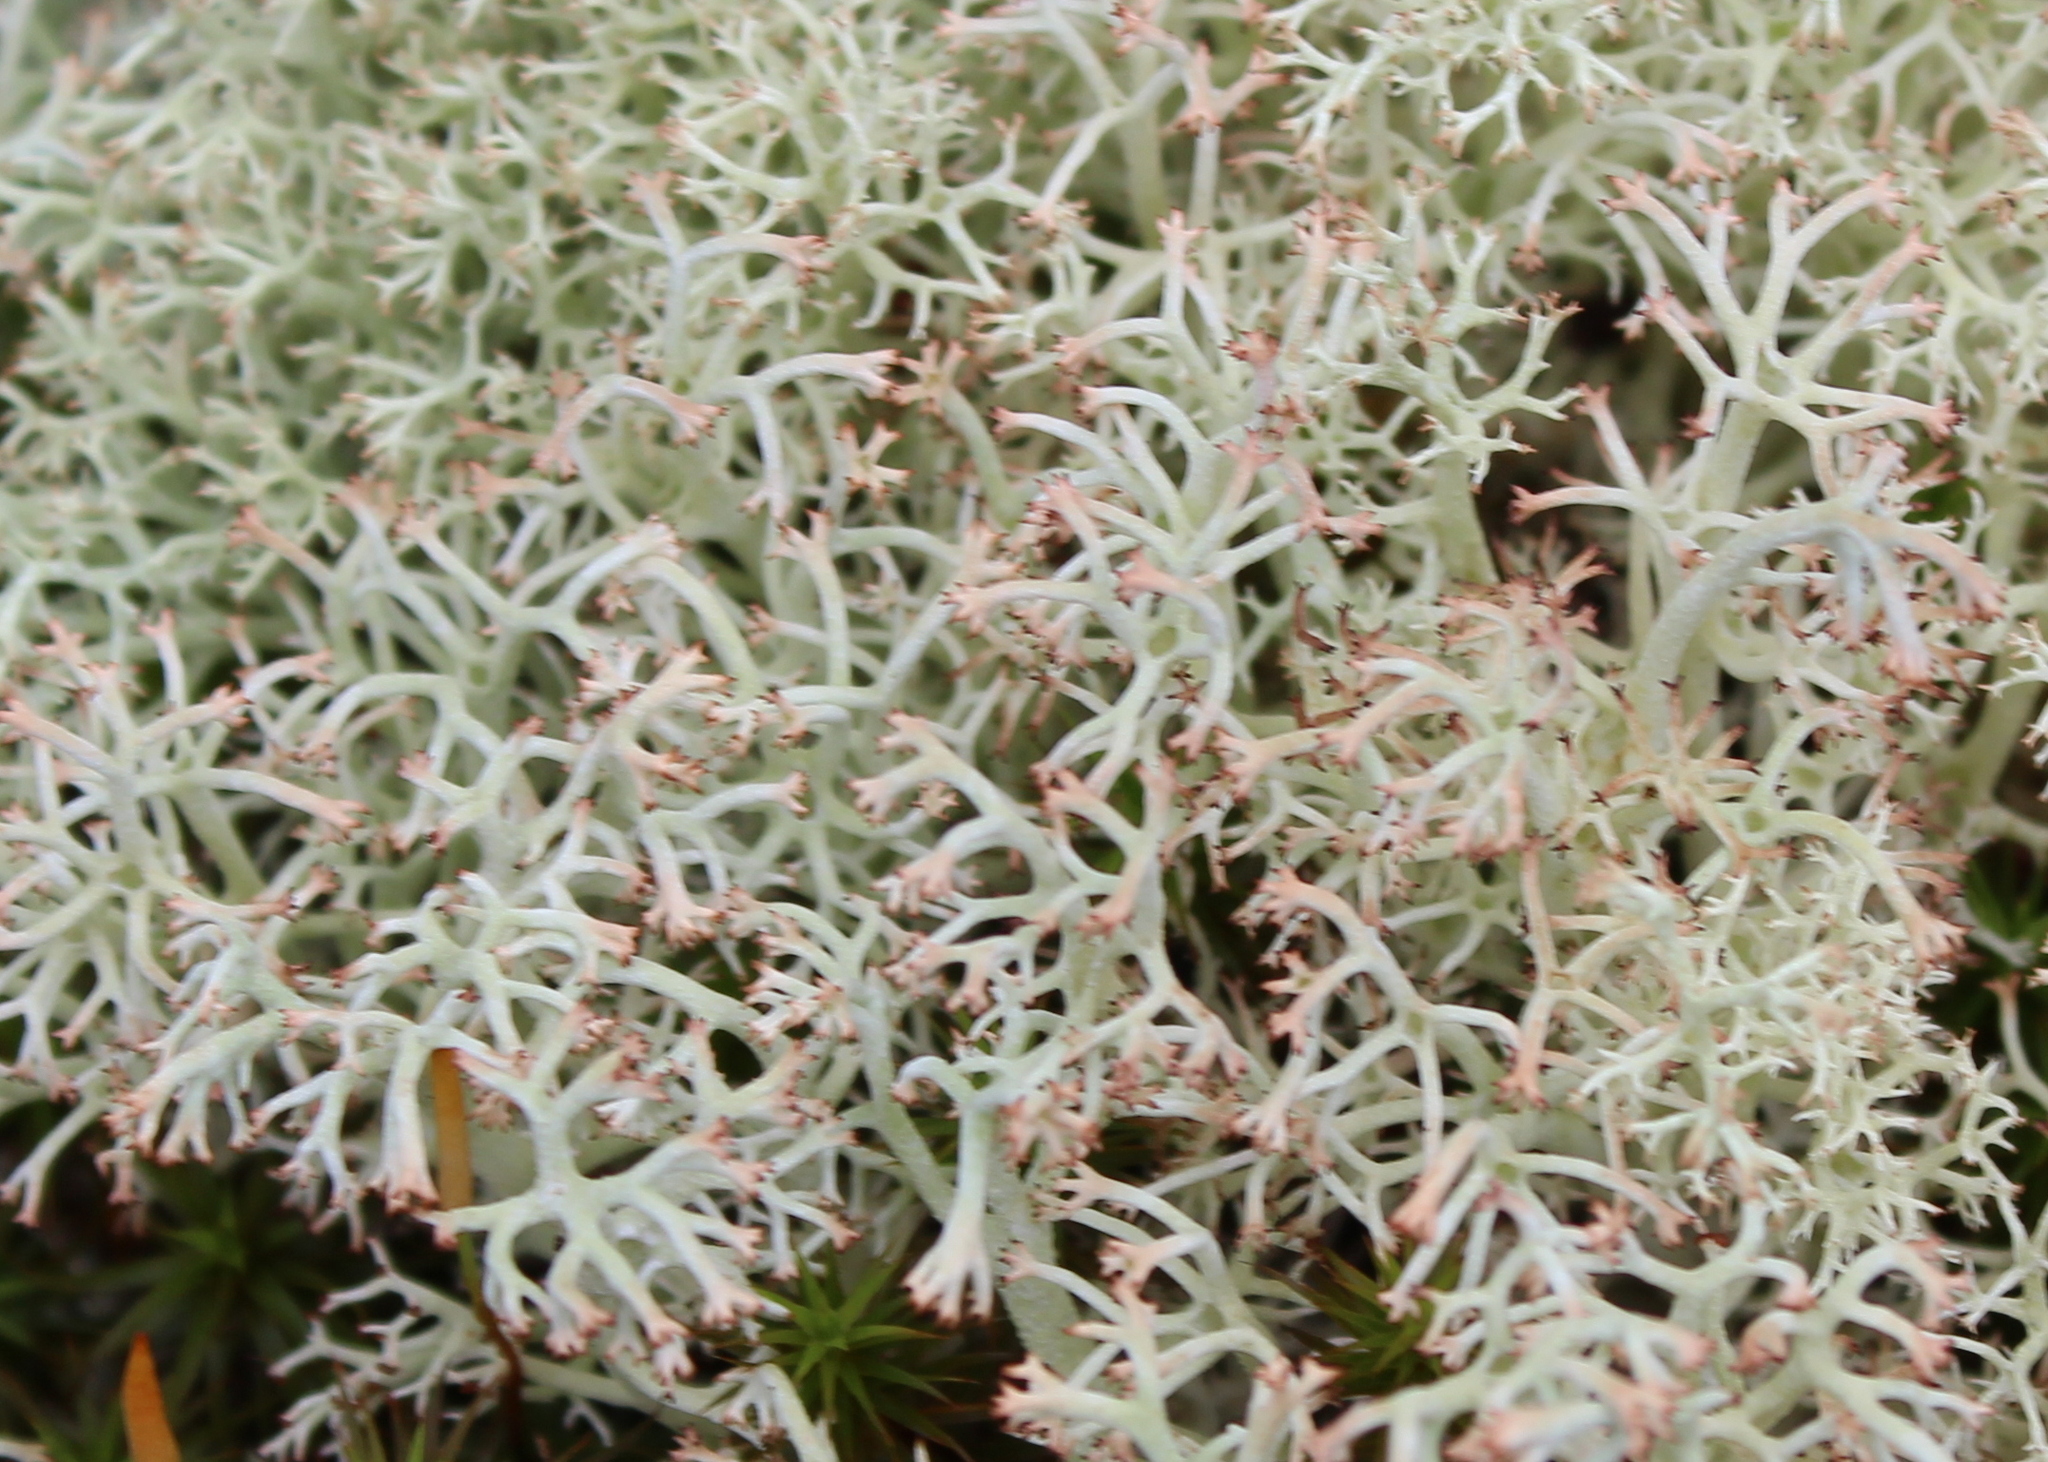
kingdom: Fungi
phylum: Ascomycota
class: Lecanoromycetes
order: Lecanorales
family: Cladoniaceae
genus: Cladonia
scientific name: Cladonia rangiferina
